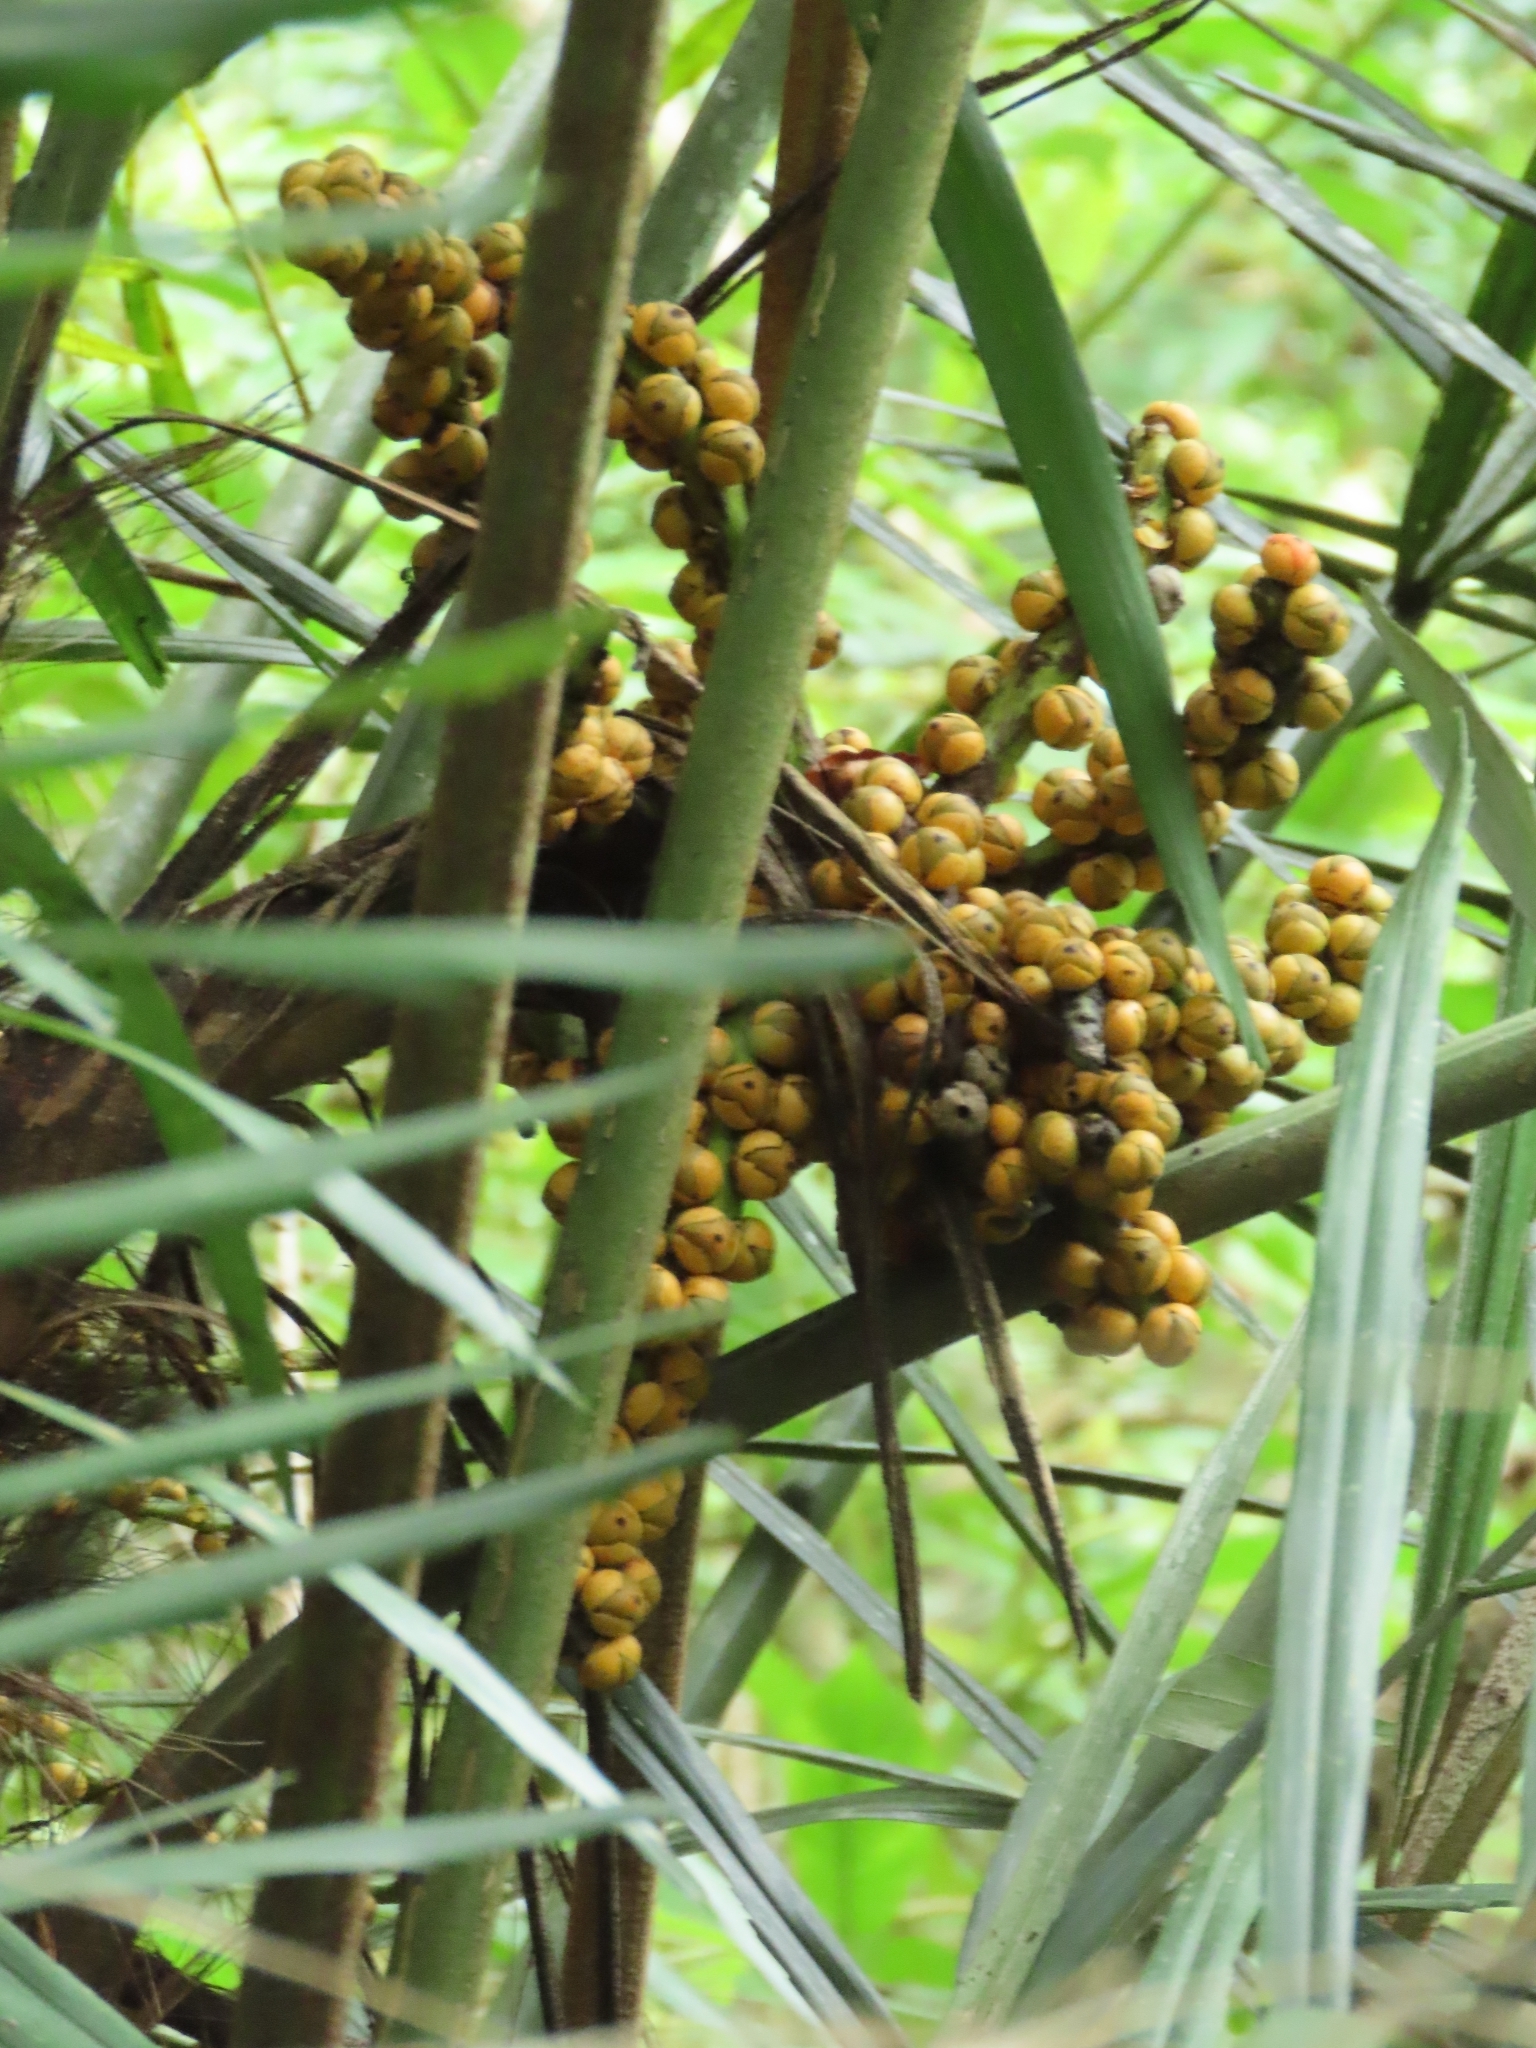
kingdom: Plantae
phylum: Tracheophyta
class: Liliopsida
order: Arecales
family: Arecaceae
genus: Arenga
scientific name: Arenga engleri
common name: Formosan sugar palm
